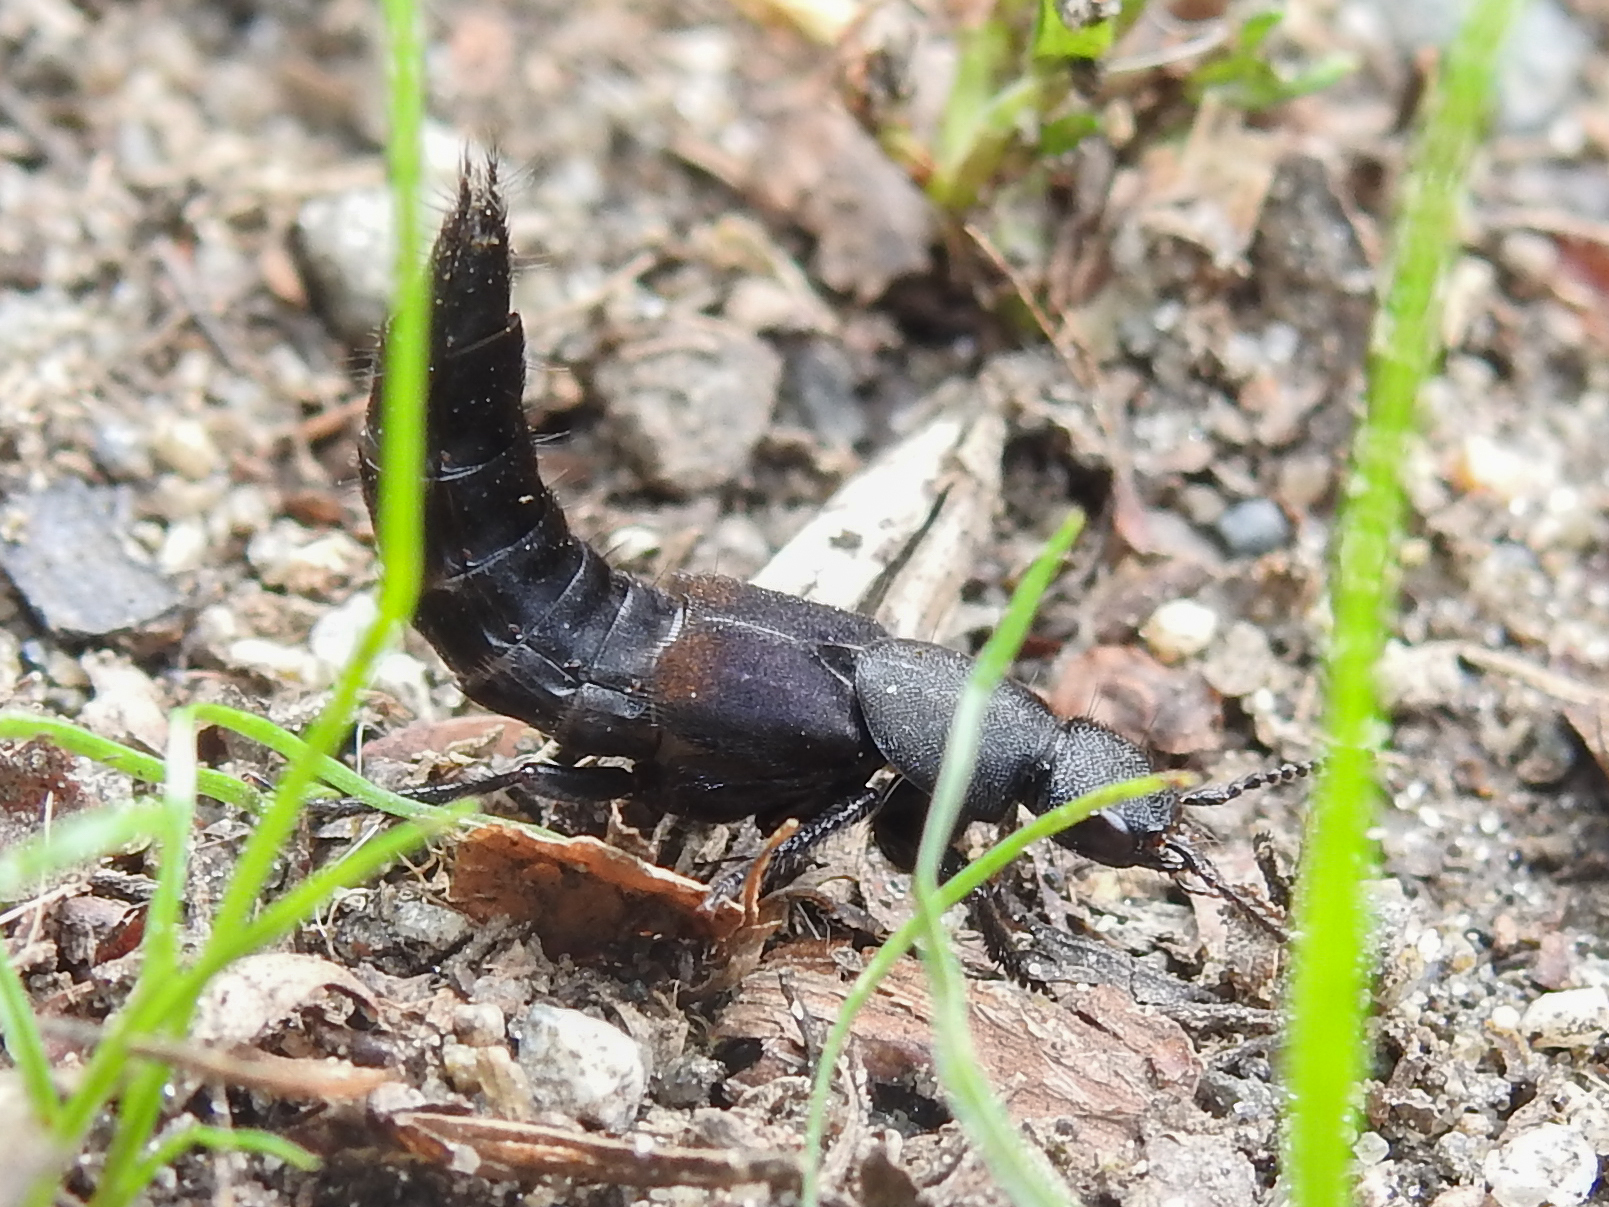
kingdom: Animalia
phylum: Arthropoda
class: Insecta
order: Coleoptera
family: Staphylinidae
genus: Platydracus
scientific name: Platydracus fossator
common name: Red-spotted rove beetle
